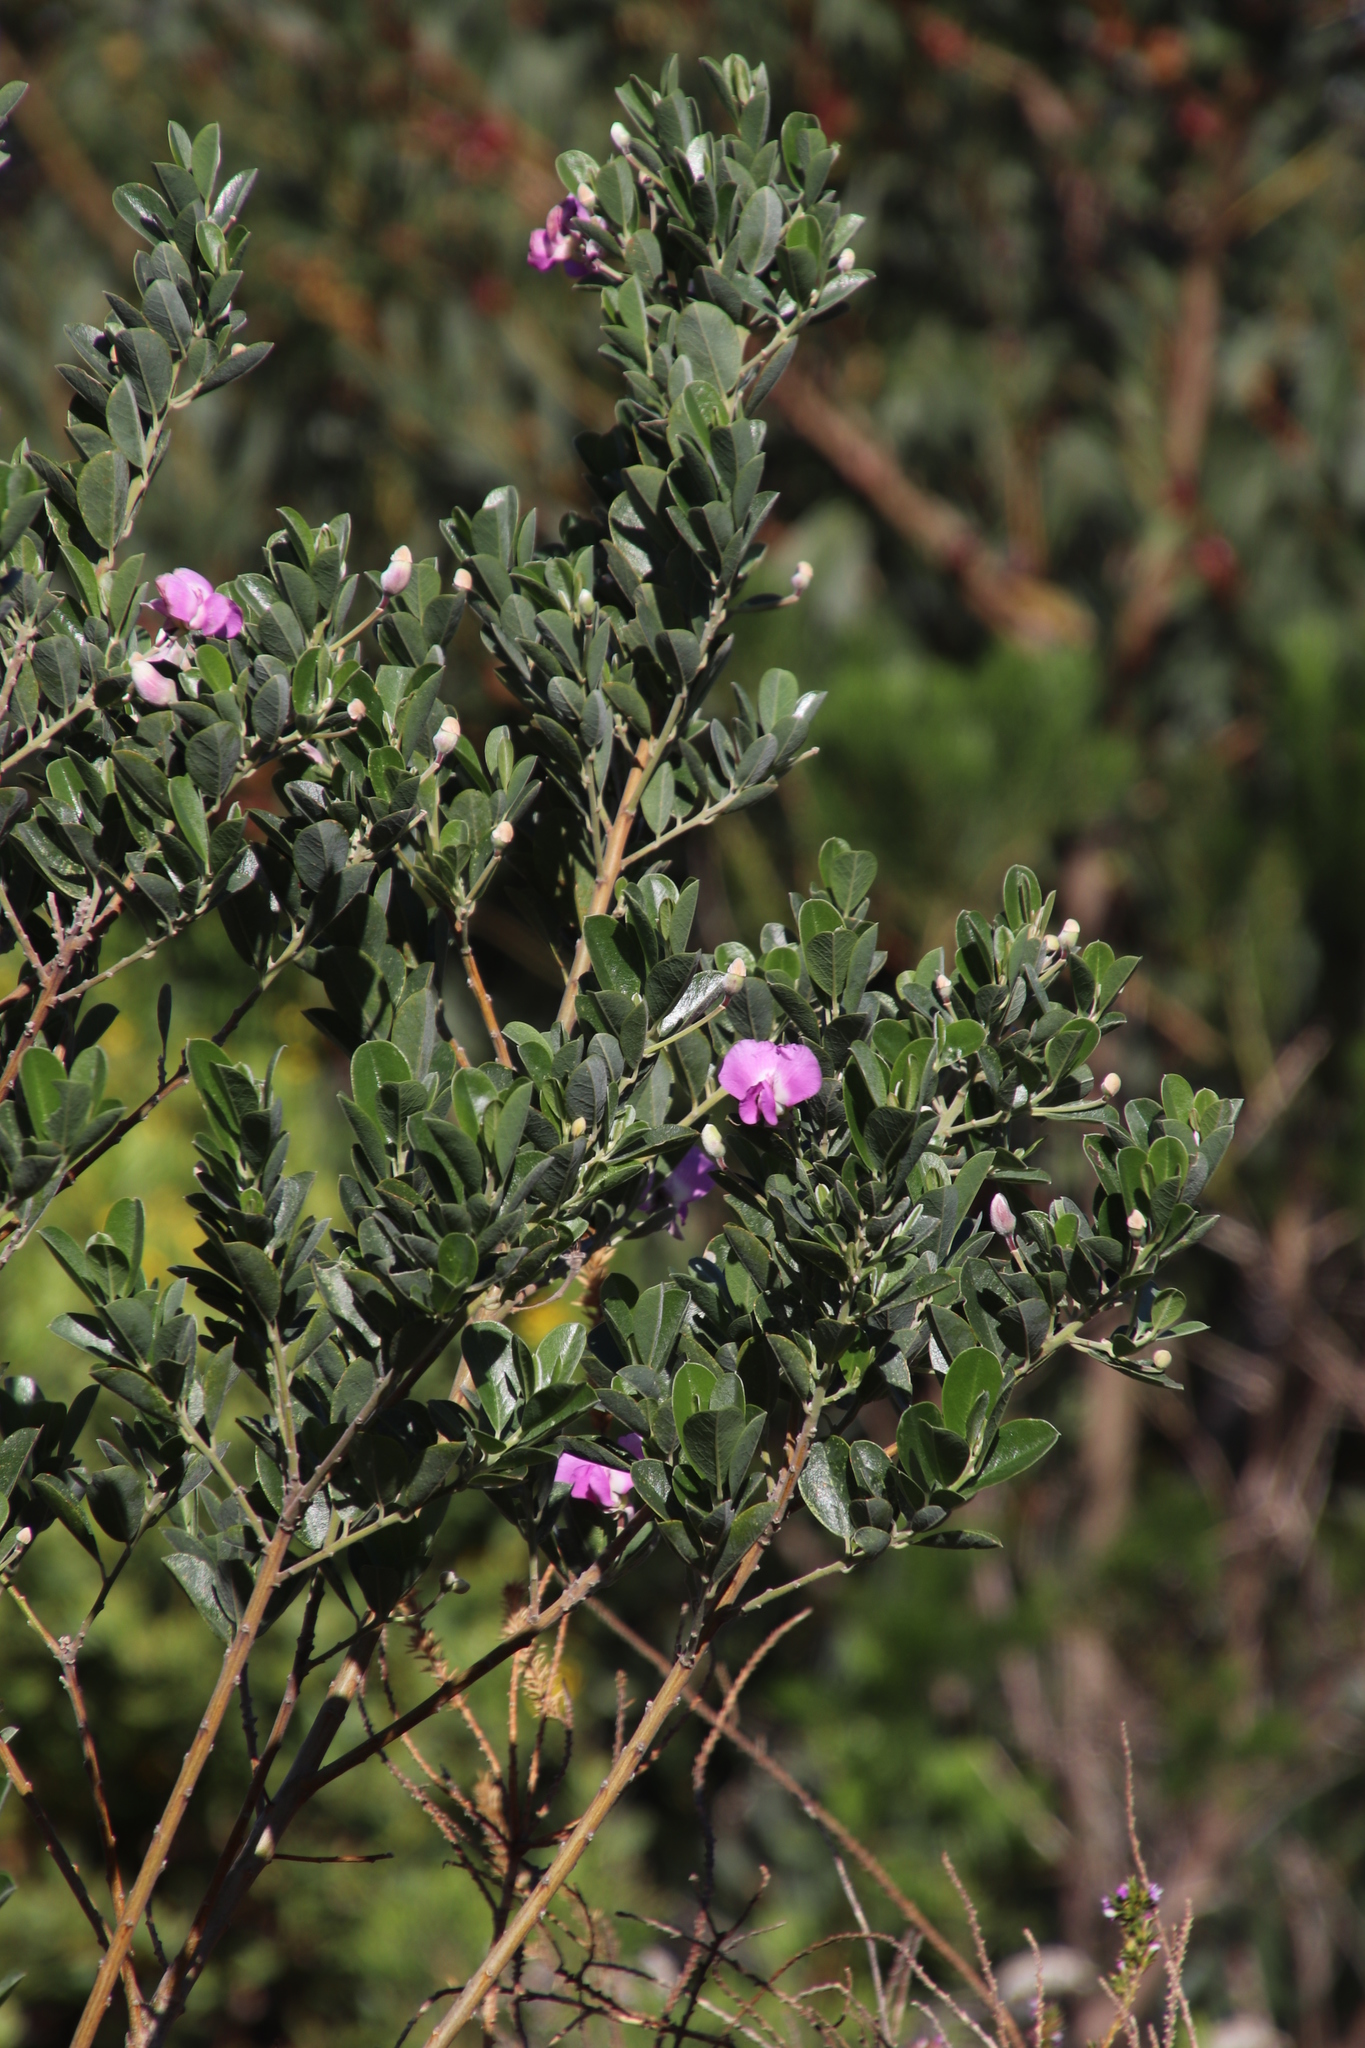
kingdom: Plantae
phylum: Tracheophyta
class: Magnoliopsida
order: Fabales
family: Fabaceae
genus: Podalyria
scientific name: Podalyria calyptrata
